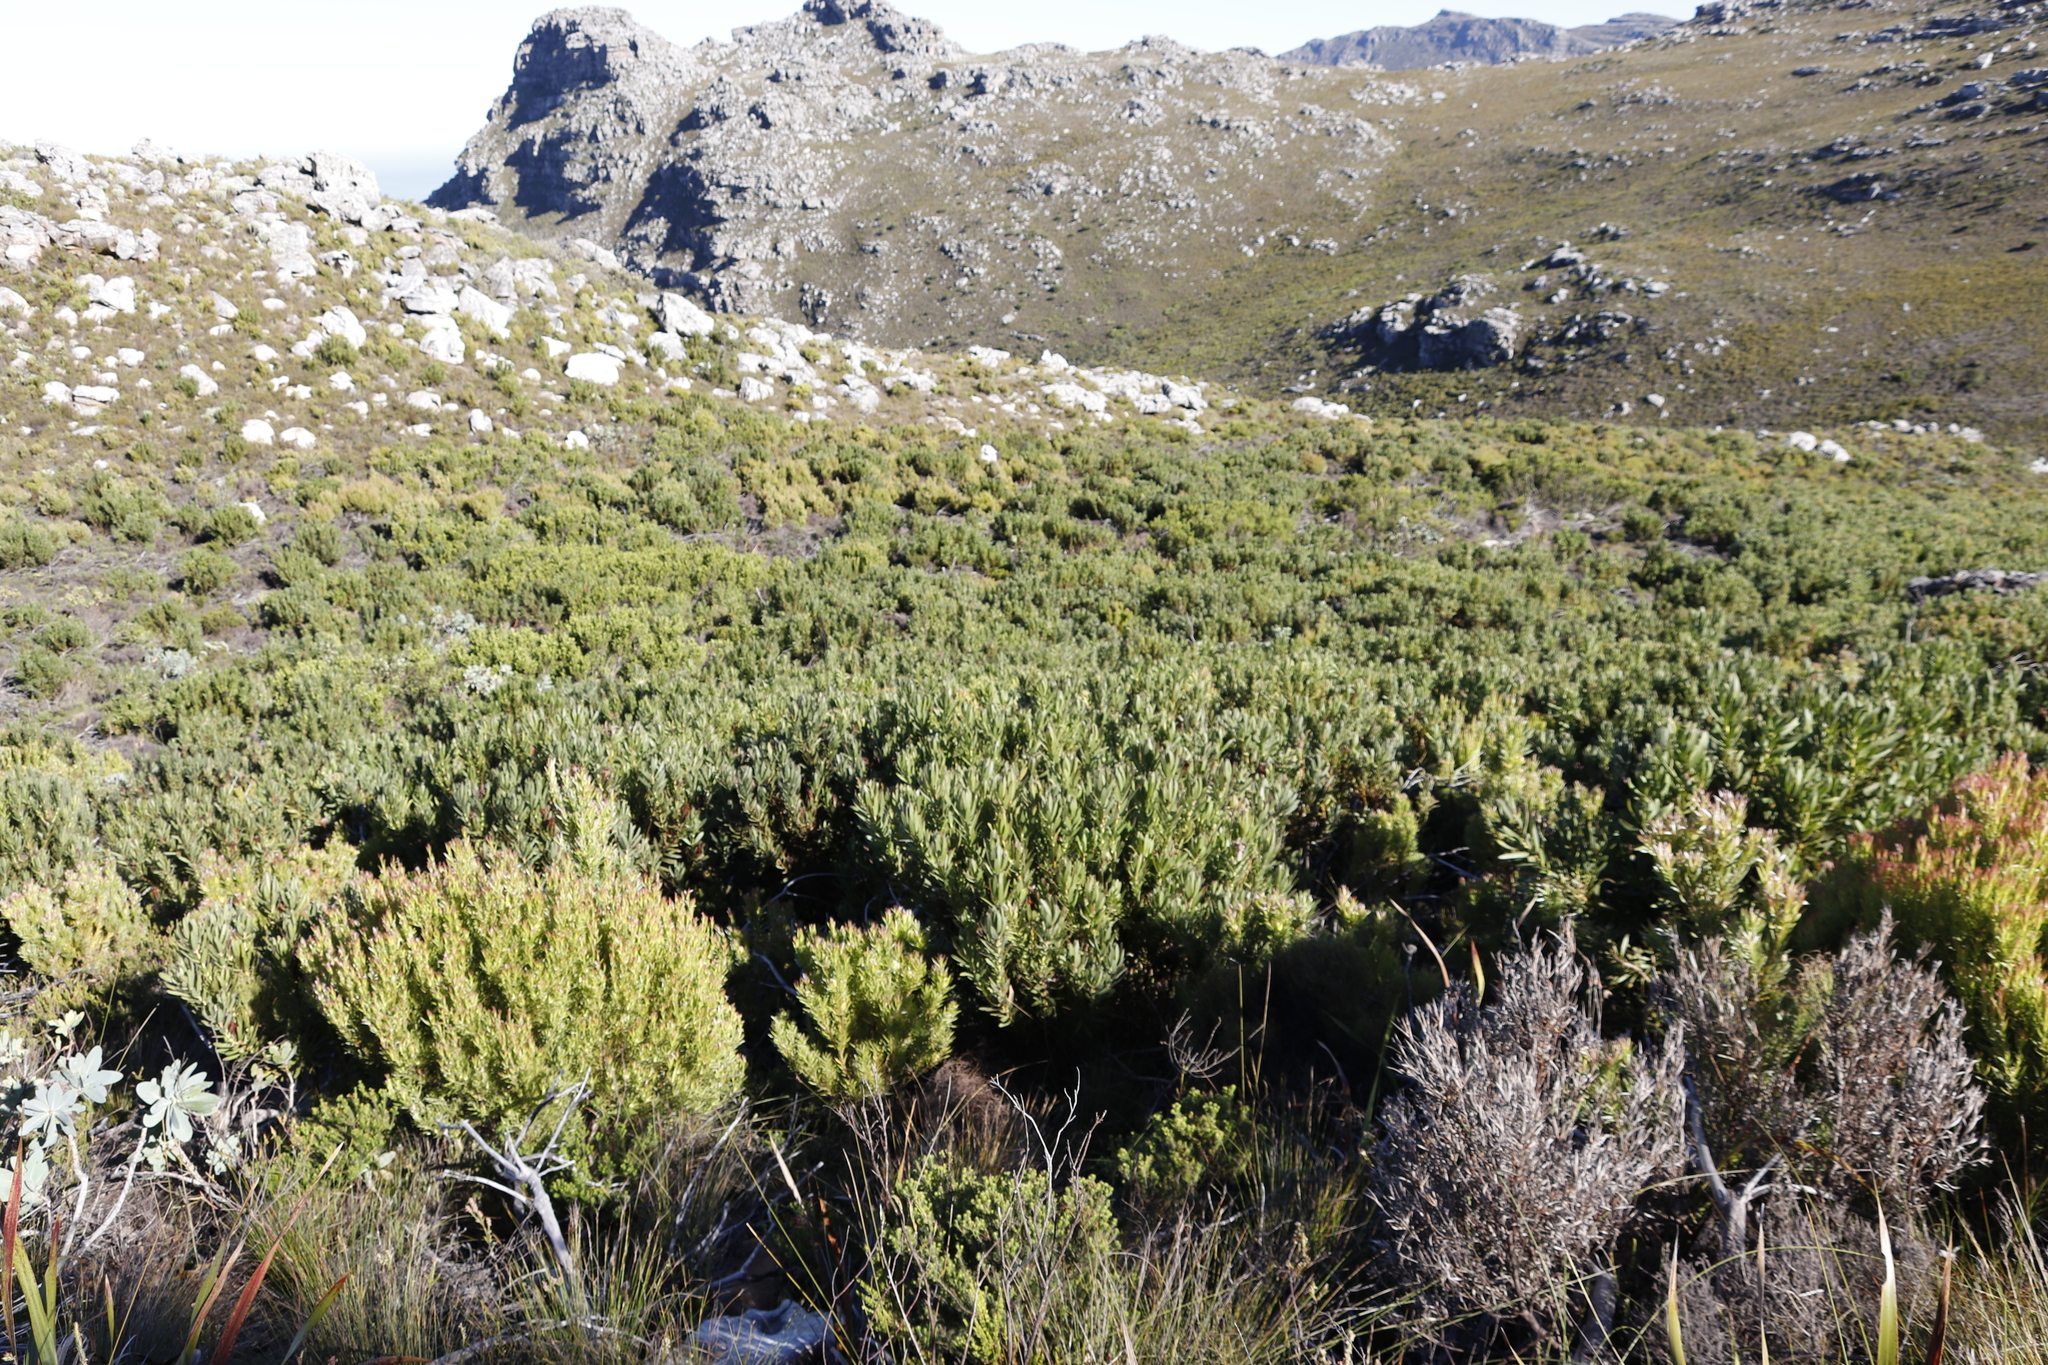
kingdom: Plantae
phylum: Tracheophyta
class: Magnoliopsida
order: Proteales
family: Proteaceae
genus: Protea
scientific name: Protea lepidocarpodendron
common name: Black-bearded protea
